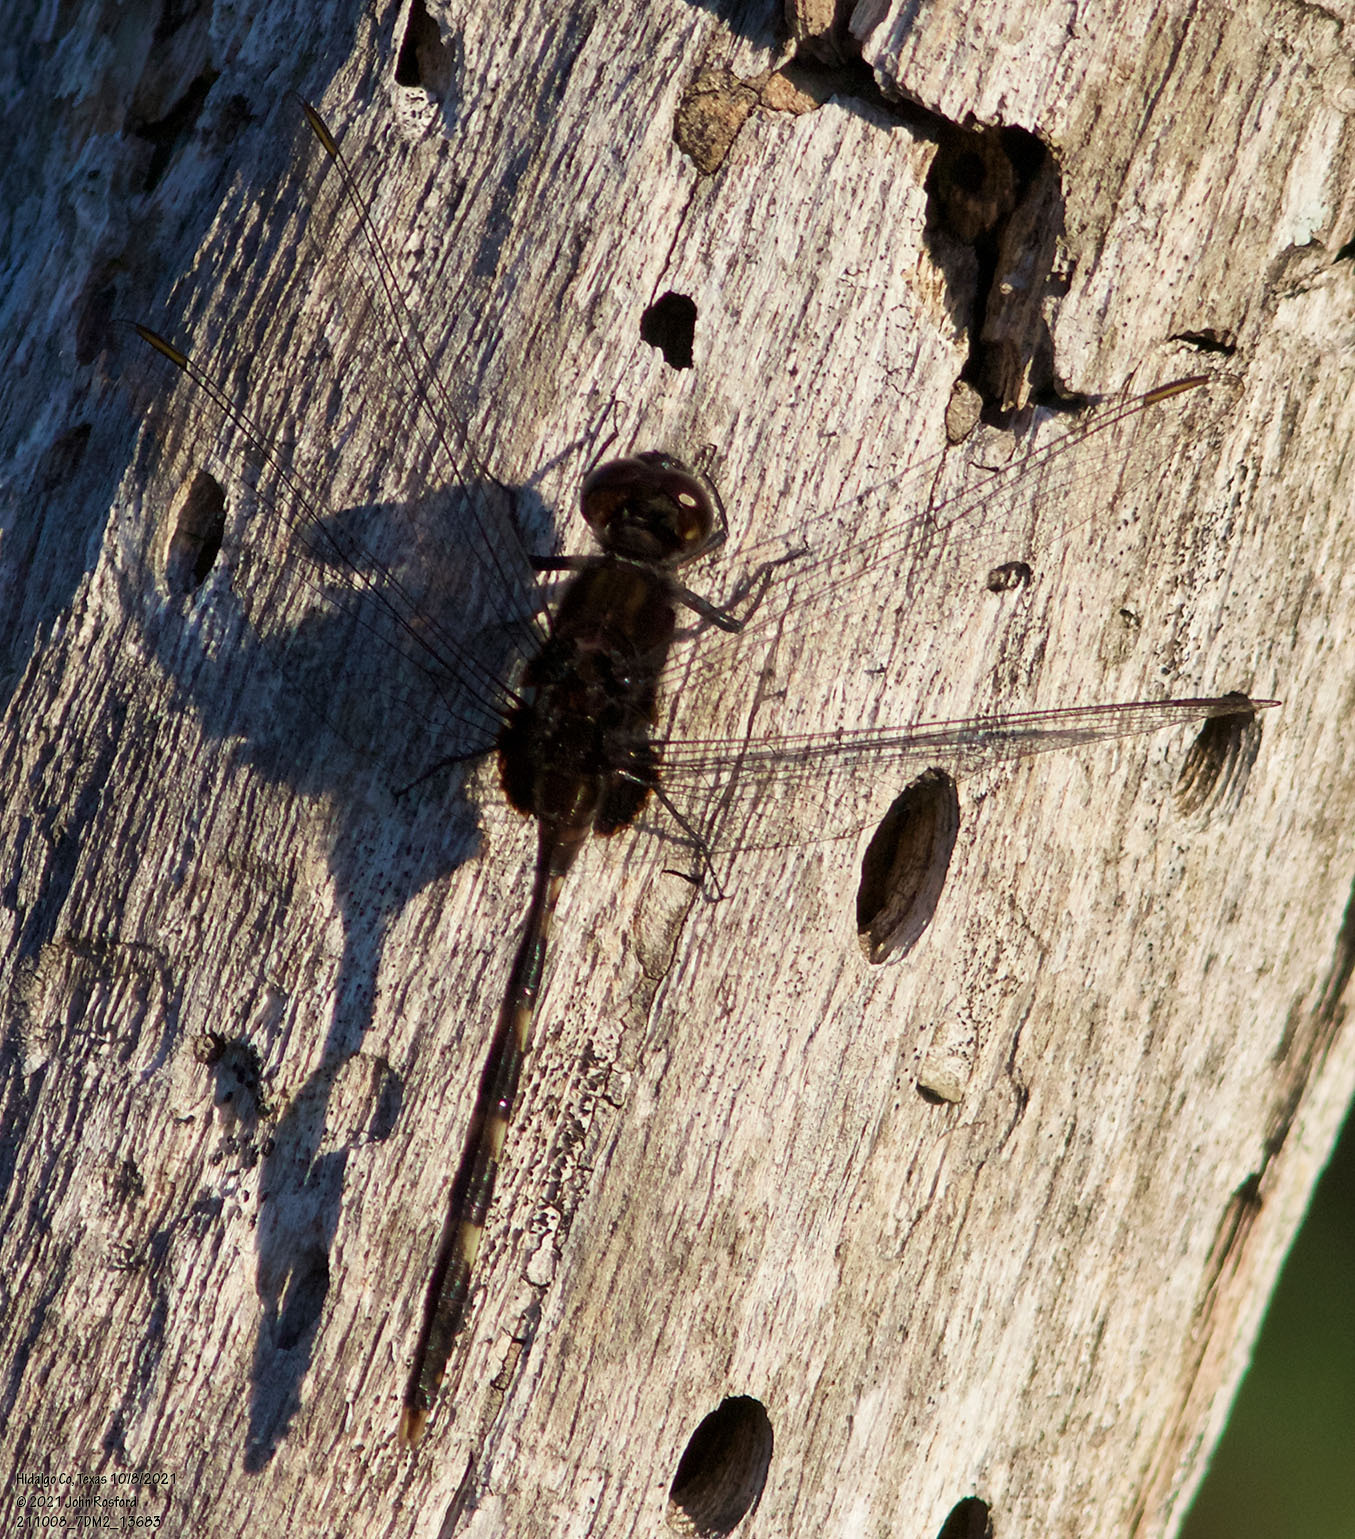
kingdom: Animalia
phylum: Arthropoda
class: Insecta
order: Odonata
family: Libellulidae
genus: Erythemis
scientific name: Erythemis plebeja
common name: Pin-tailed pondhawk
